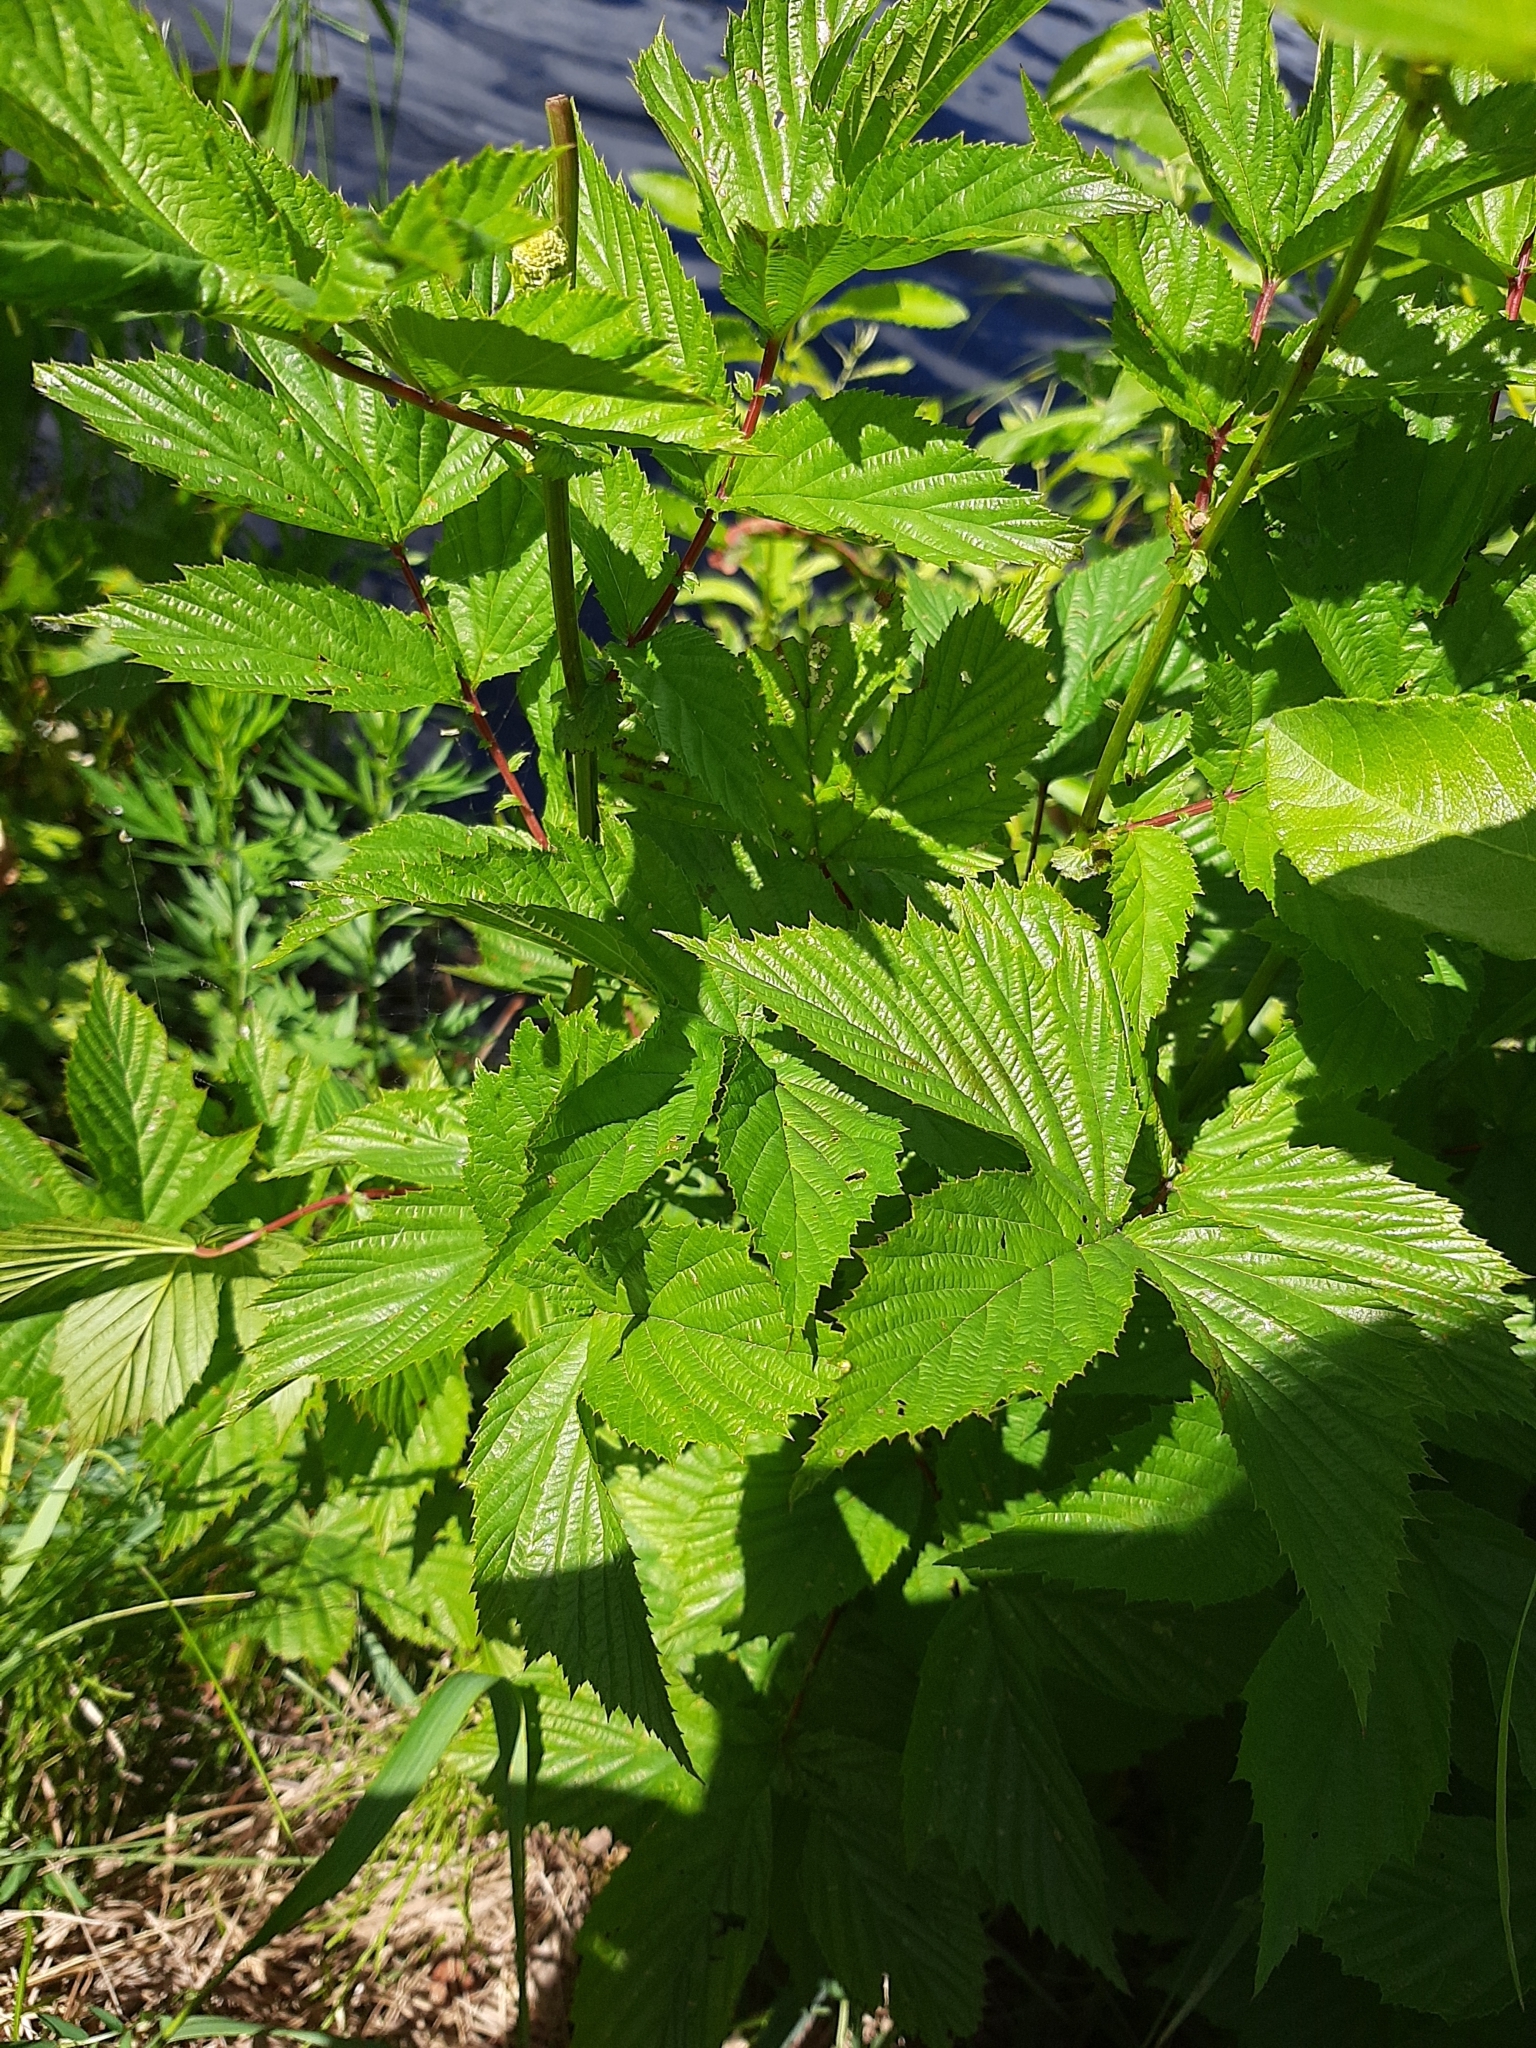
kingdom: Plantae
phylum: Tracheophyta
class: Magnoliopsida
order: Rosales
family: Rosaceae
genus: Filipendula
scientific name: Filipendula ulmaria
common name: Meadowsweet
